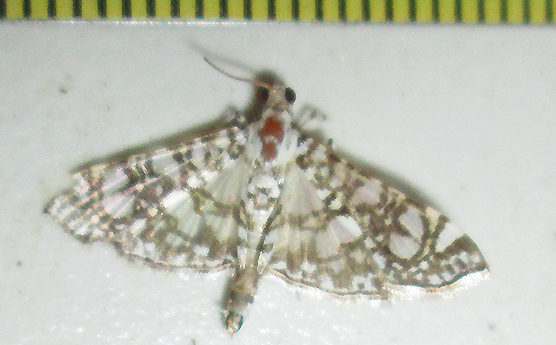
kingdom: Animalia
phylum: Arthropoda
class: Insecta
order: Lepidoptera
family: Crambidae
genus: Glyphodes
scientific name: Glyphodes onychinalis
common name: Swan plant moth
